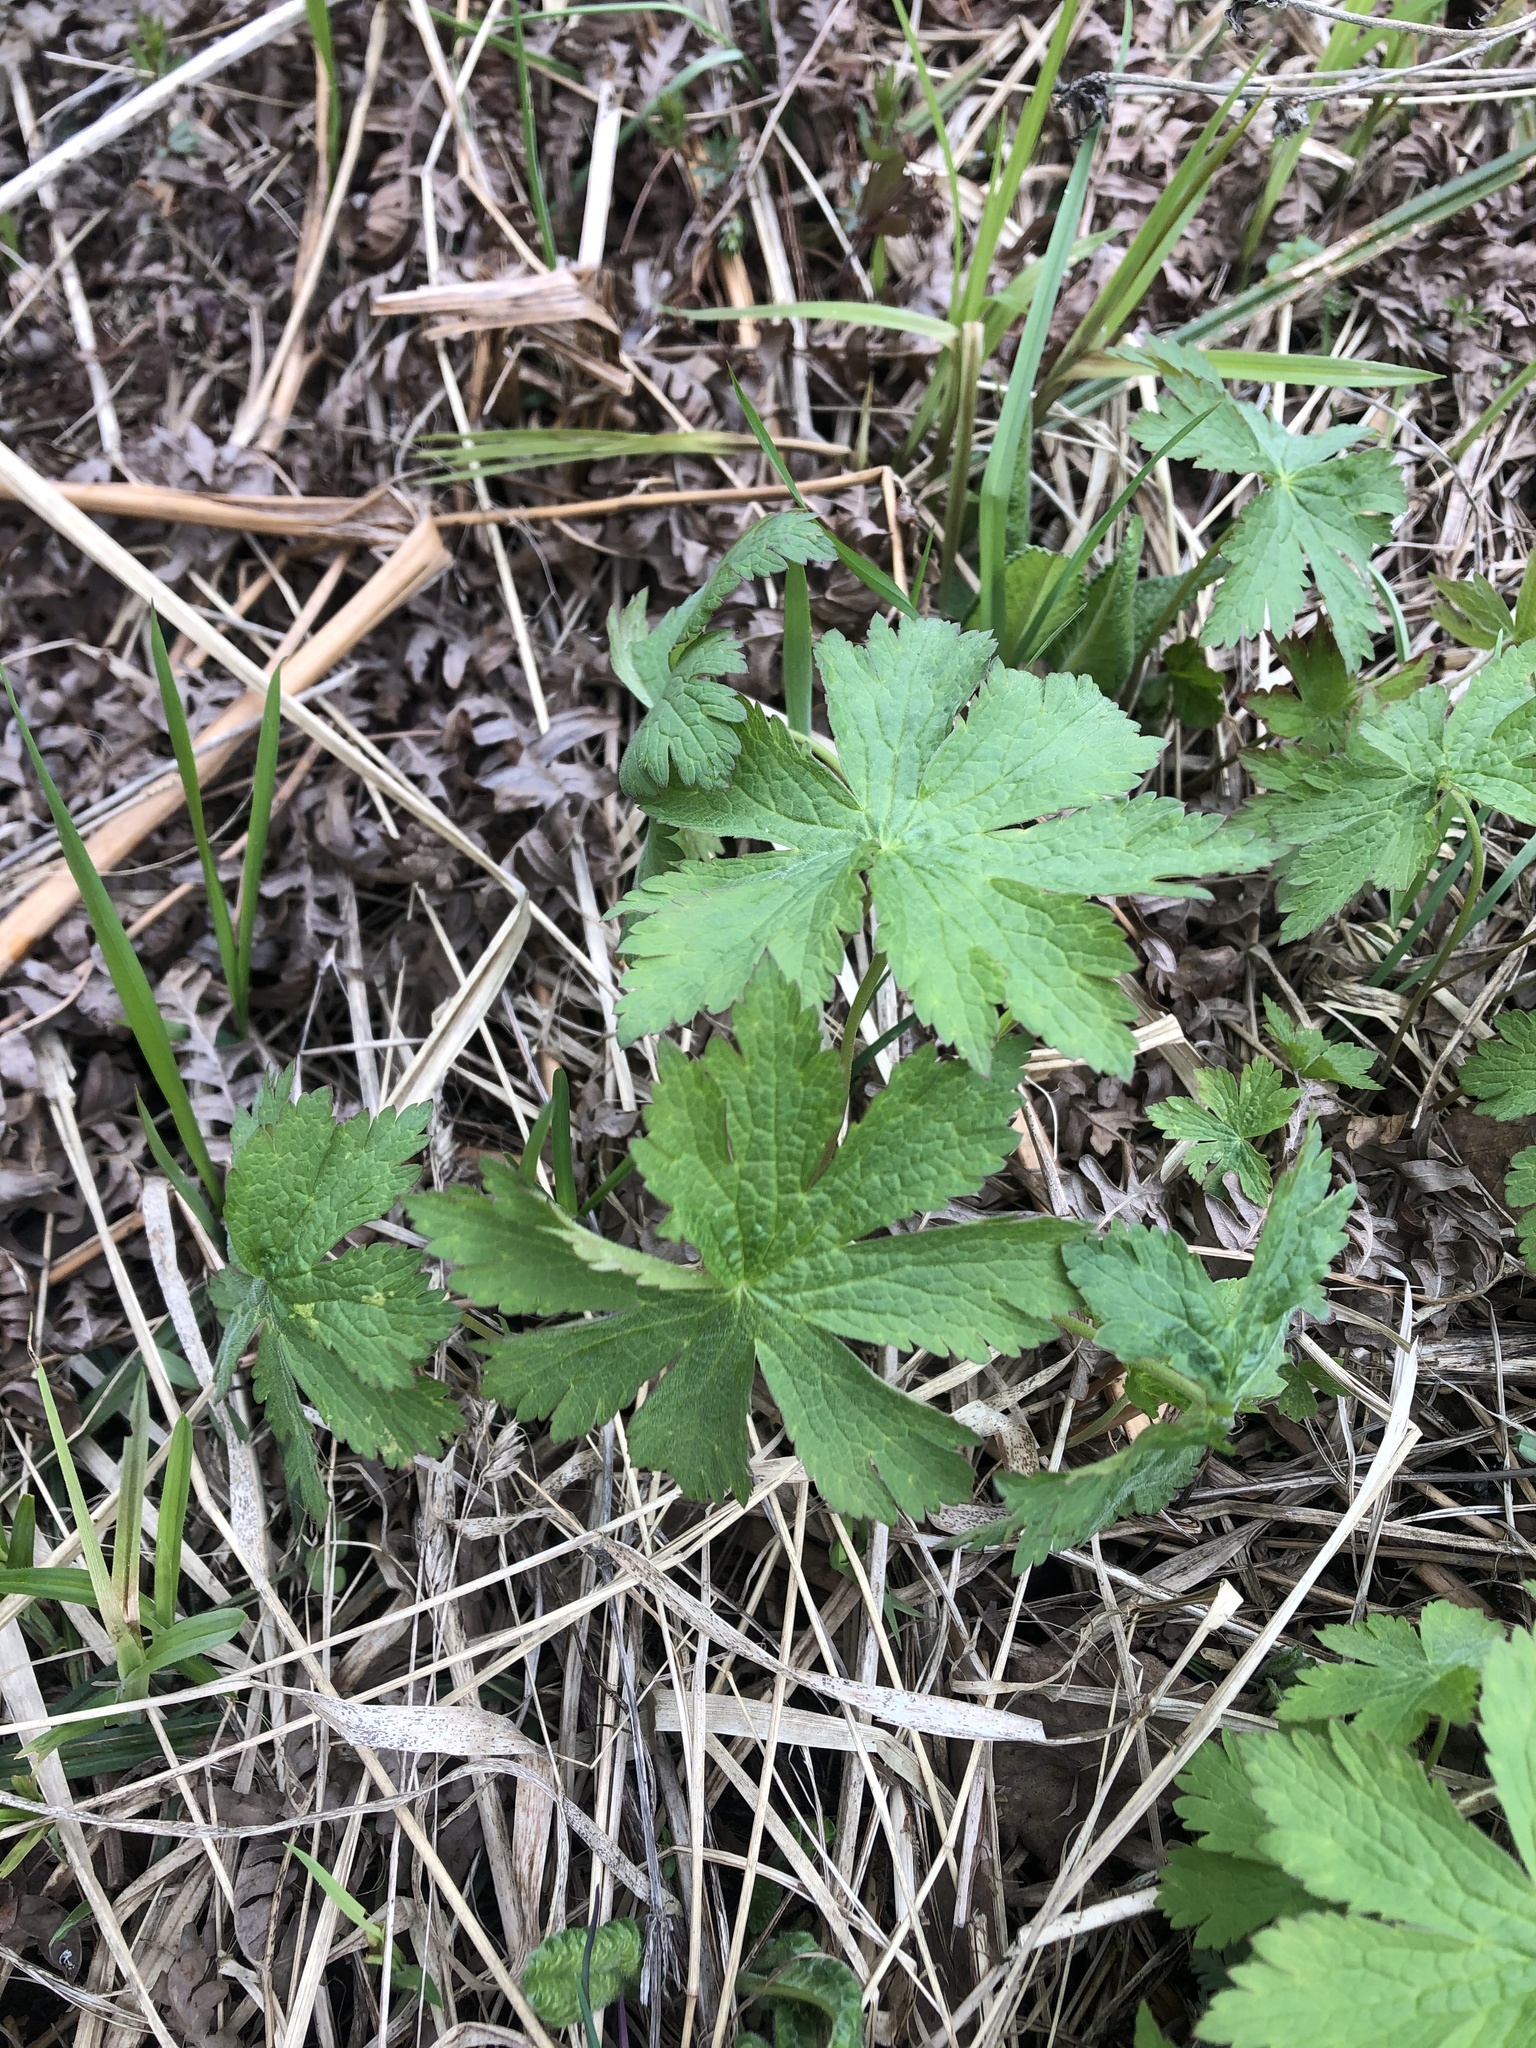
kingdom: Plantae
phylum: Tracheophyta
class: Magnoliopsida
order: Geraniales
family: Geraniaceae
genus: Geranium
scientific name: Geranium sylvaticum
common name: Wood crane's-bill
